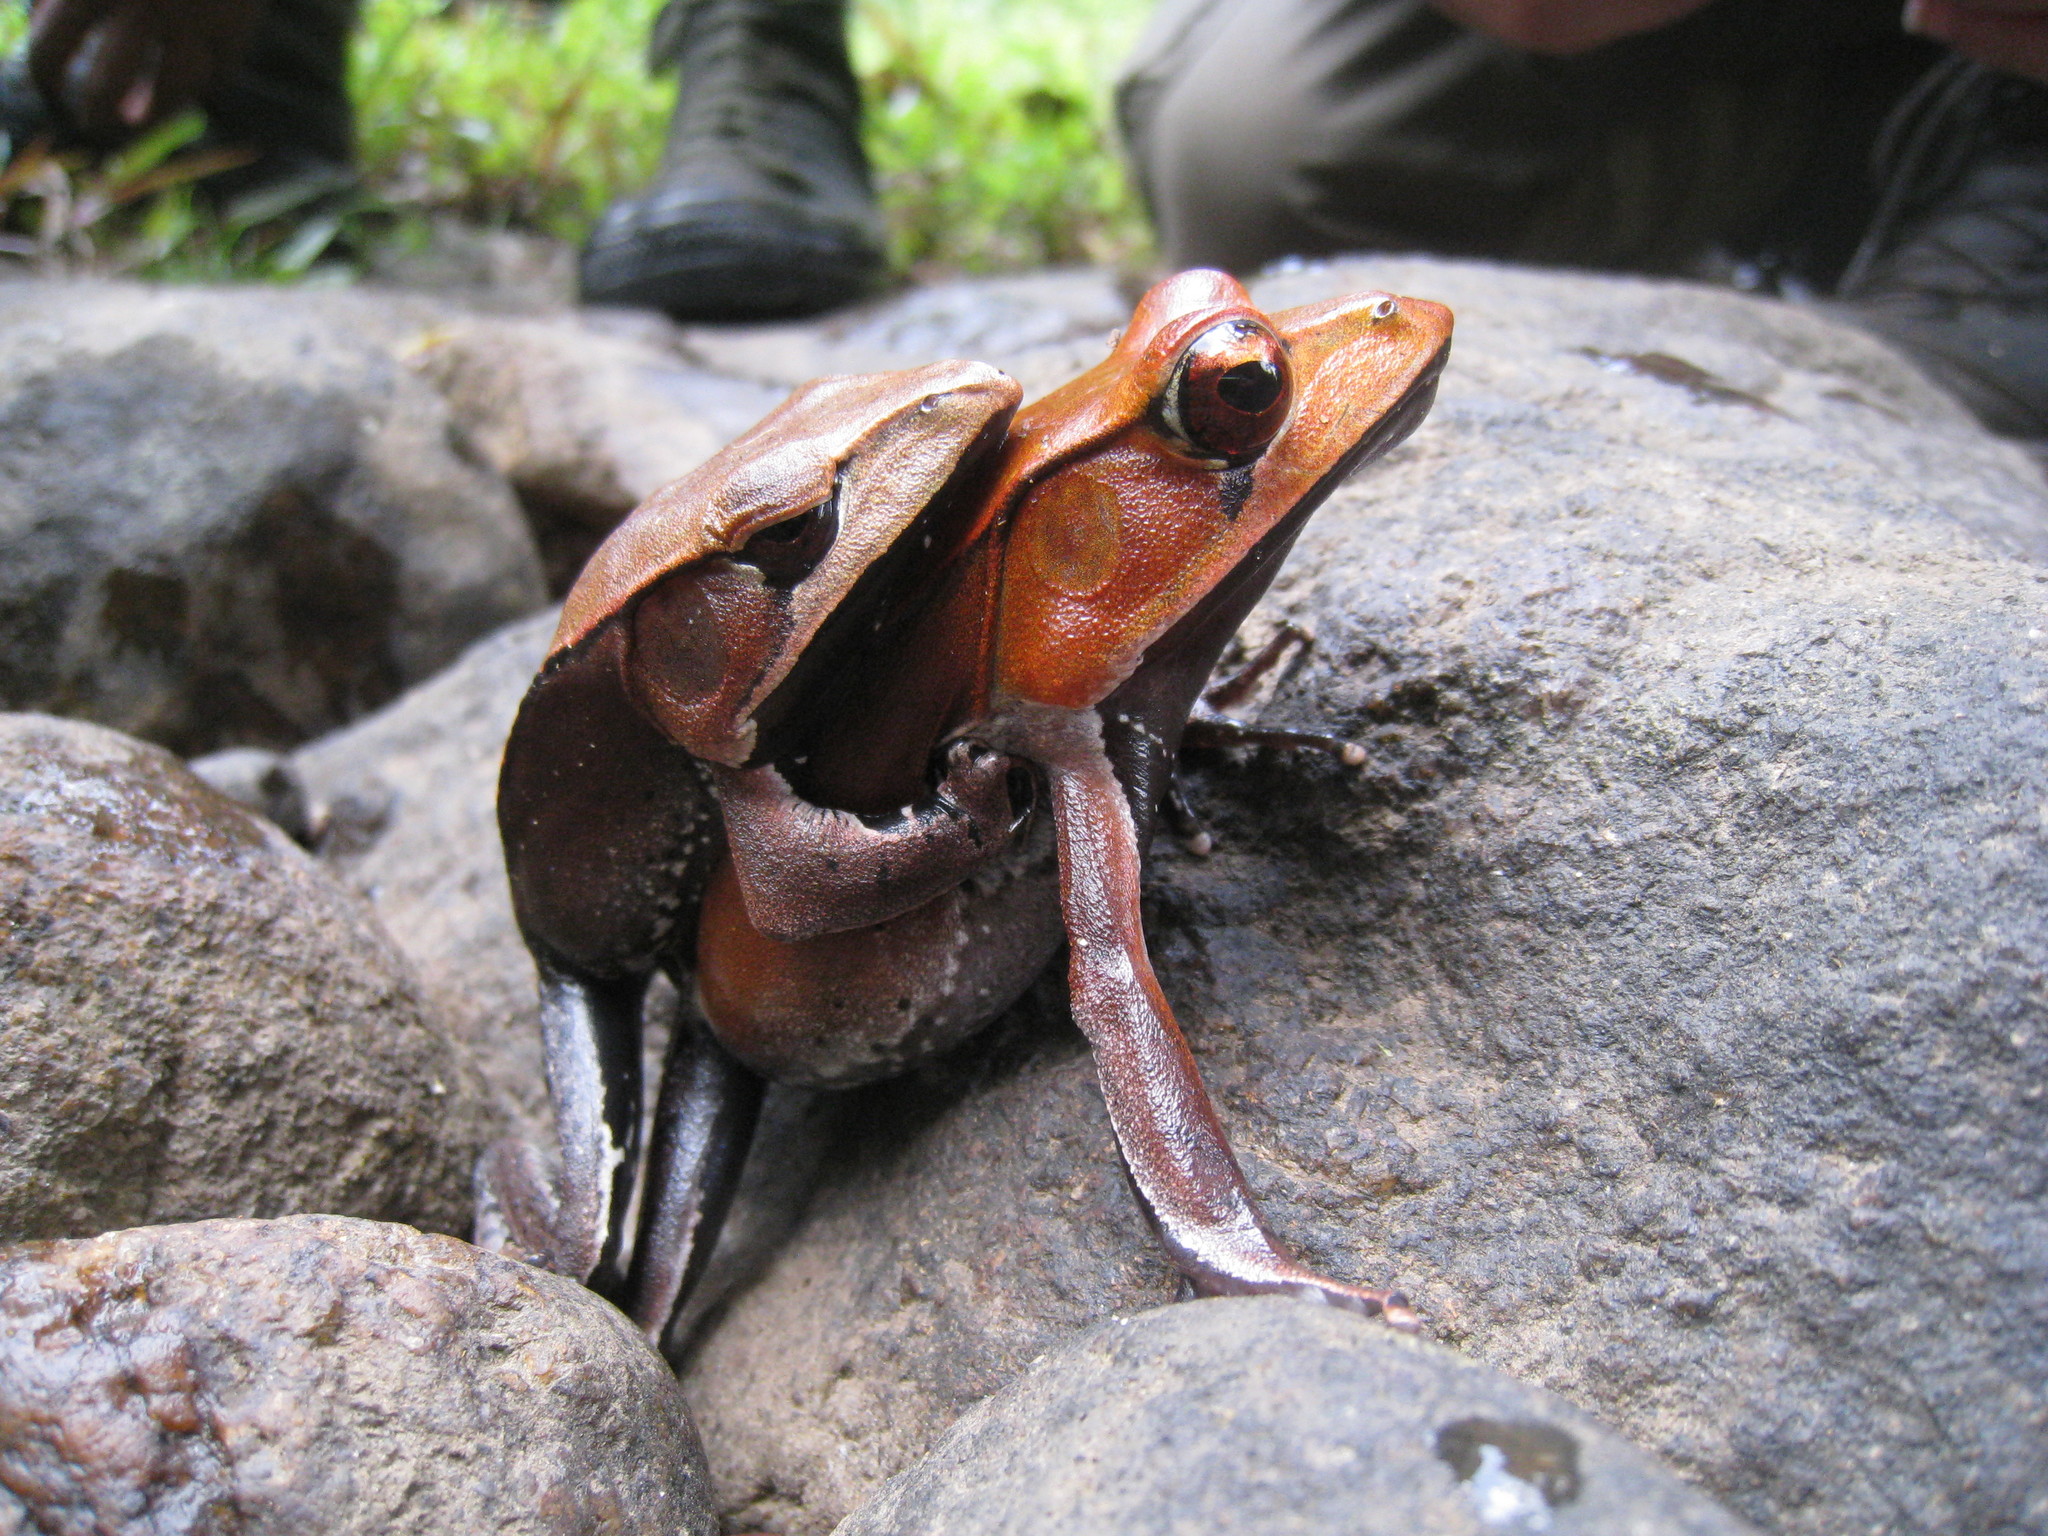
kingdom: Animalia
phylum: Chordata
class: Amphibia
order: Anura
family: Ranidae
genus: Clinotarsus
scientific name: Clinotarsus curtipes
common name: Bicoloured frog
